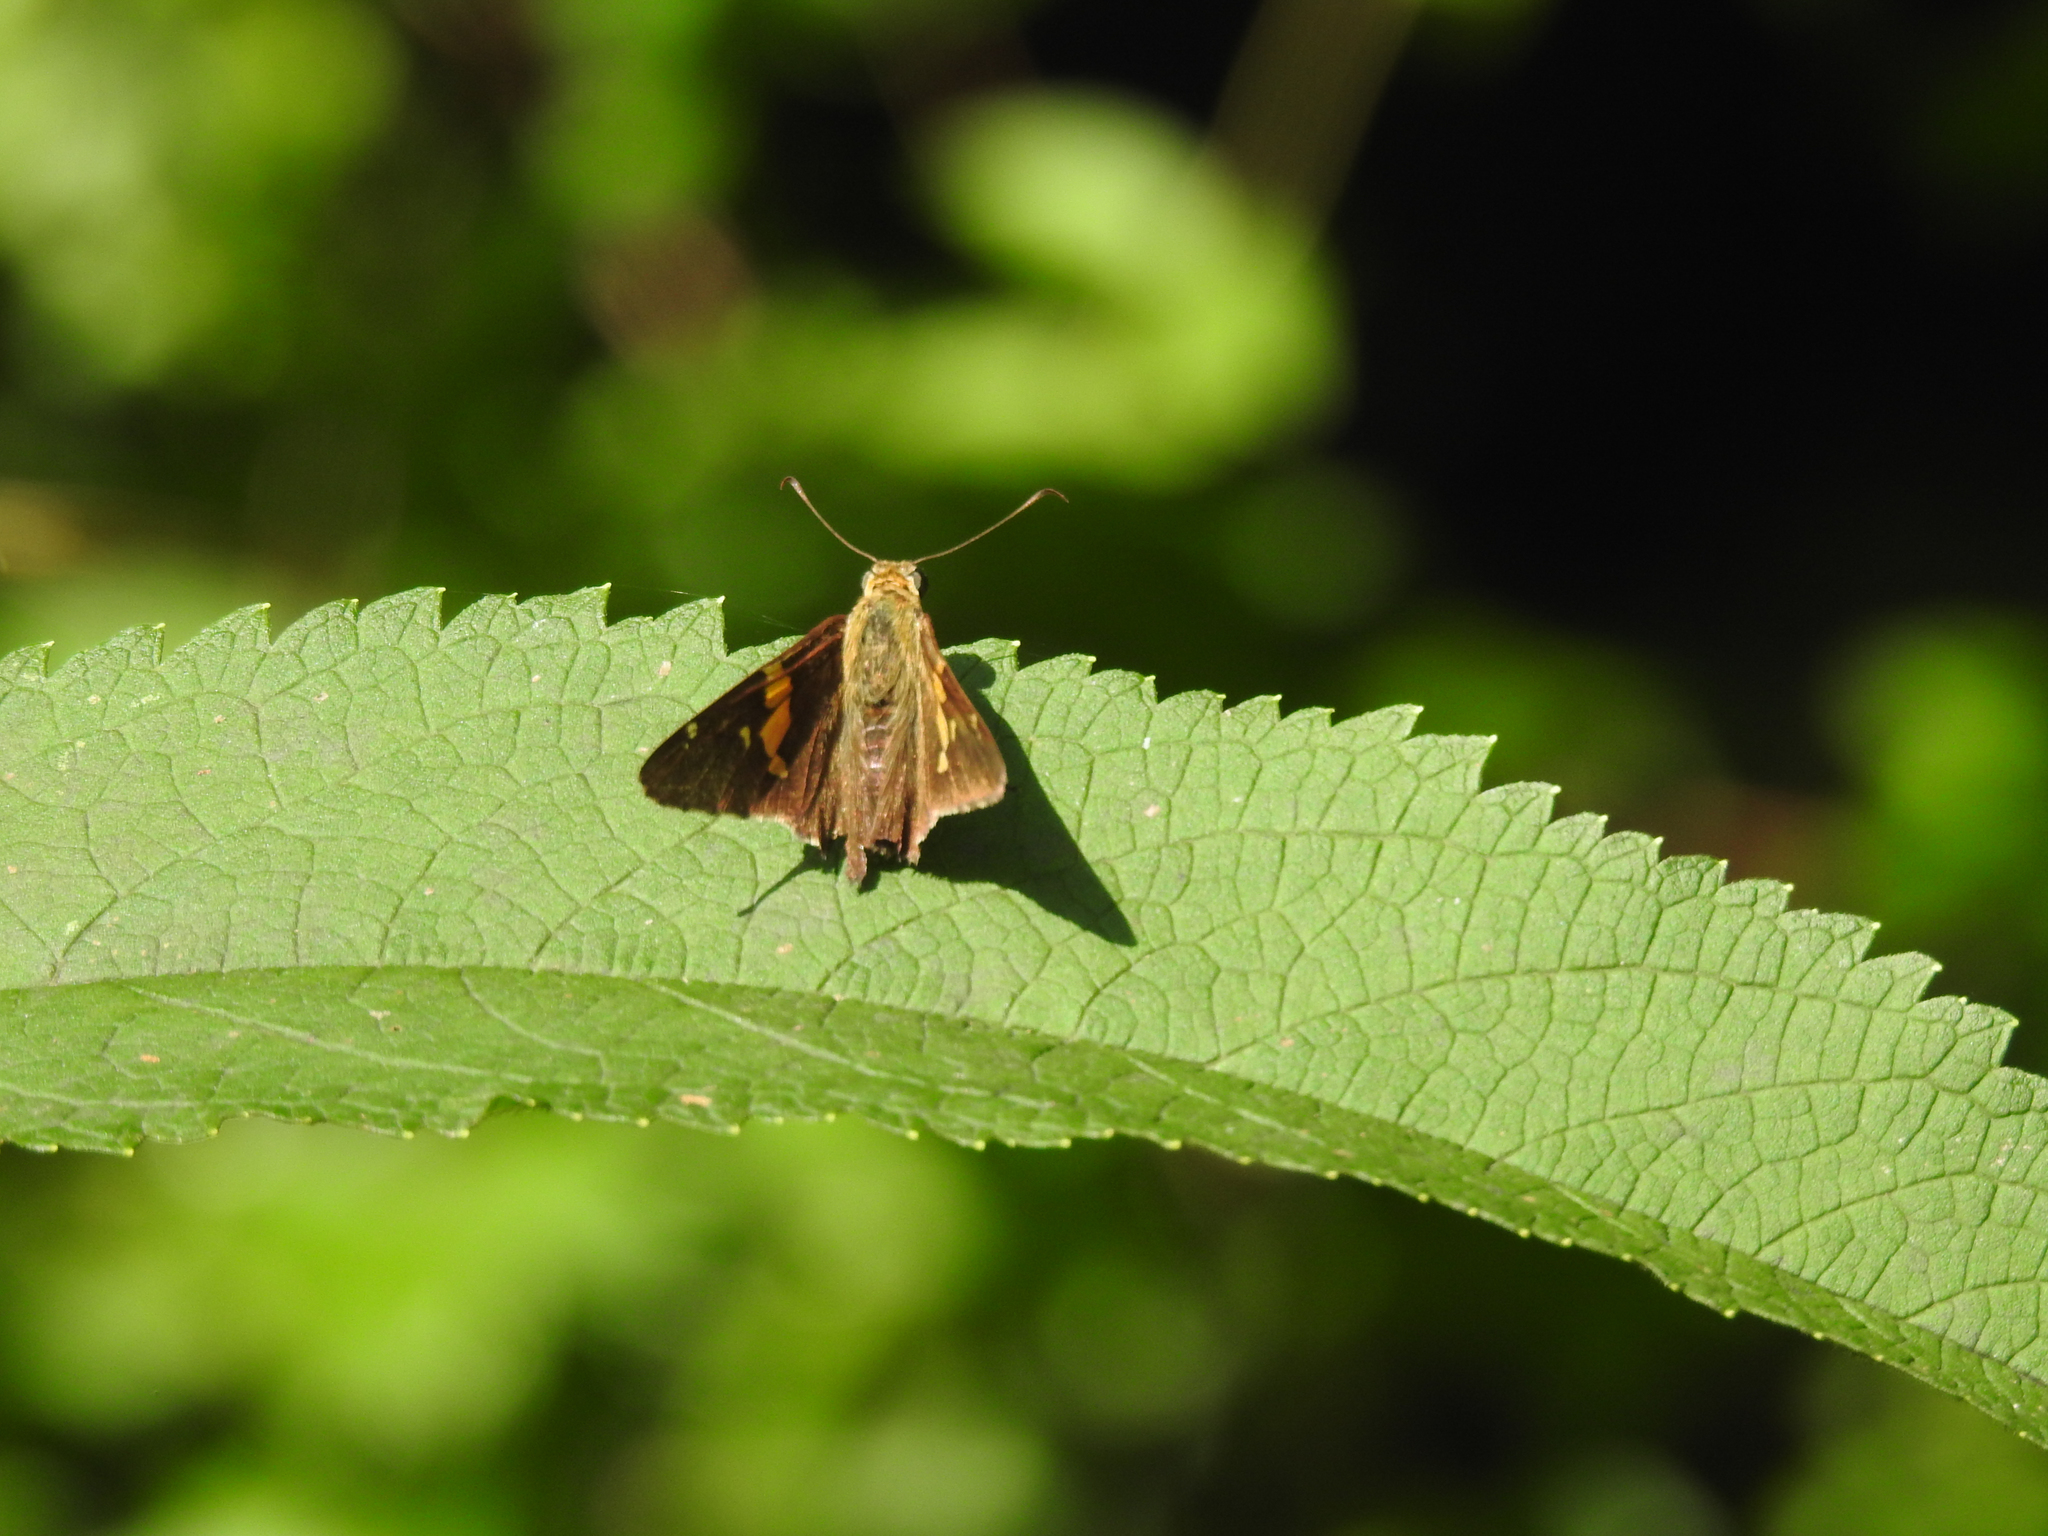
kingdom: Animalia
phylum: Arthropoda
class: Insecta
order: Lepidoptera
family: Hesperiidae
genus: Epargyreus
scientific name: Epargyreus clarus
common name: Silver-spotted skipper
